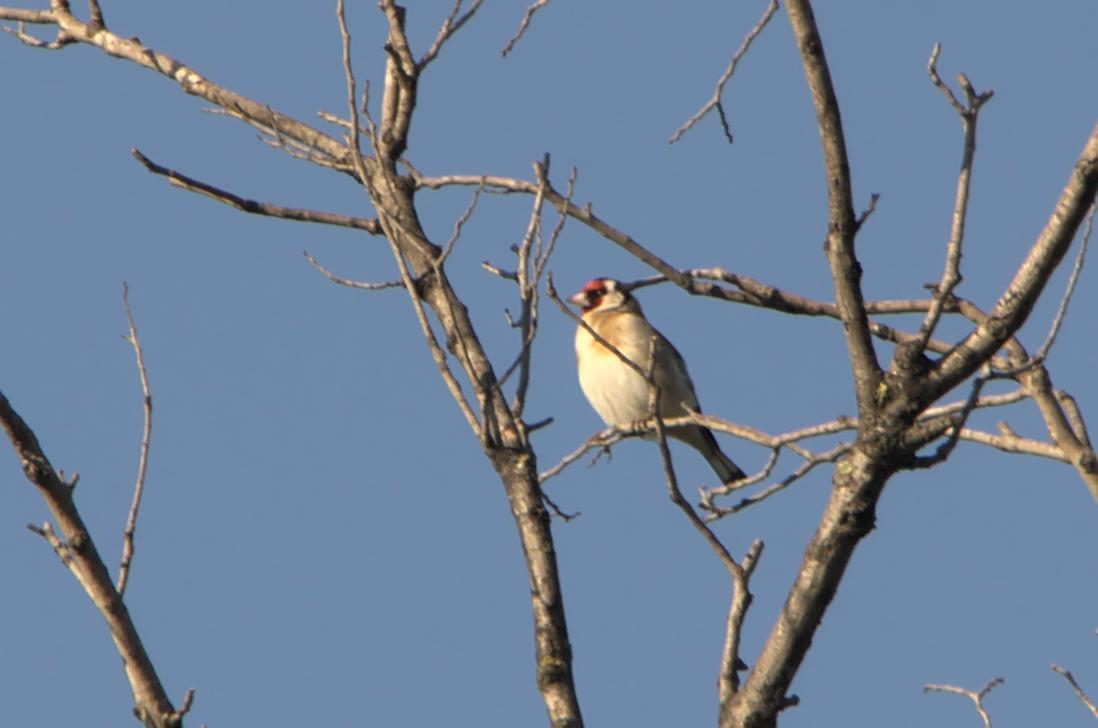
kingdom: Animalia
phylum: Chordata
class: Aves
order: Passeriformes
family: Fringillidae
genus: Carduelis
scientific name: Carduelis carduelis
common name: European goldfinch
